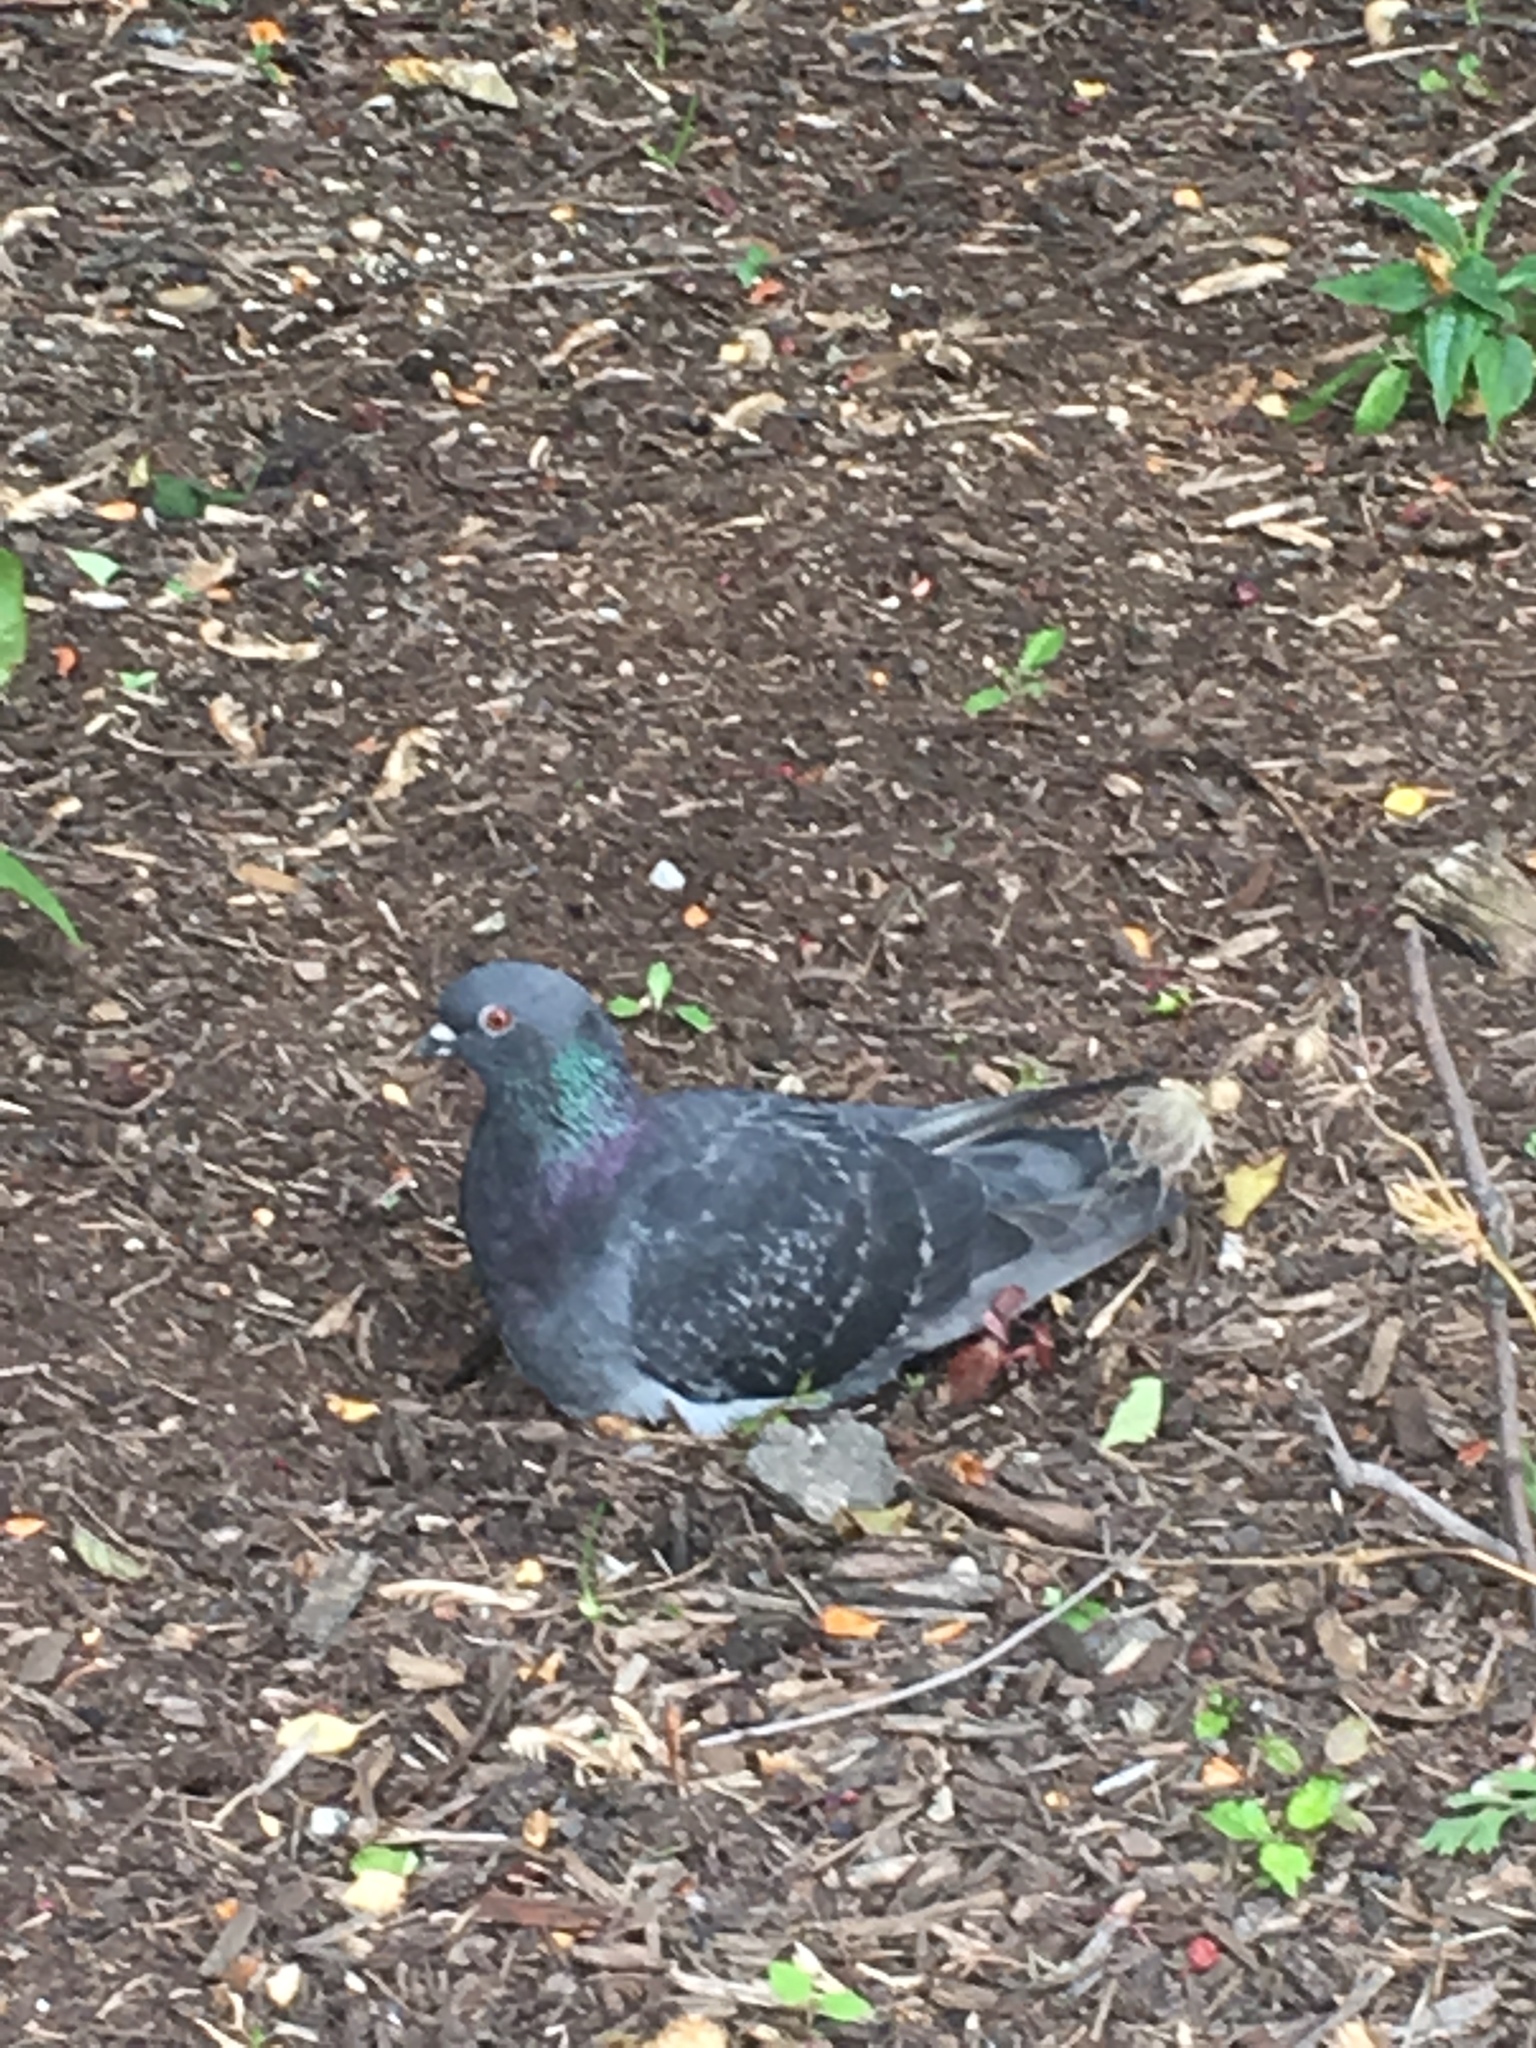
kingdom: Animalia
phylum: Chordata
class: Aves
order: Columbiformes
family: Columbidae
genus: Columba
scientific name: Columba livia
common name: Rock pigeon
